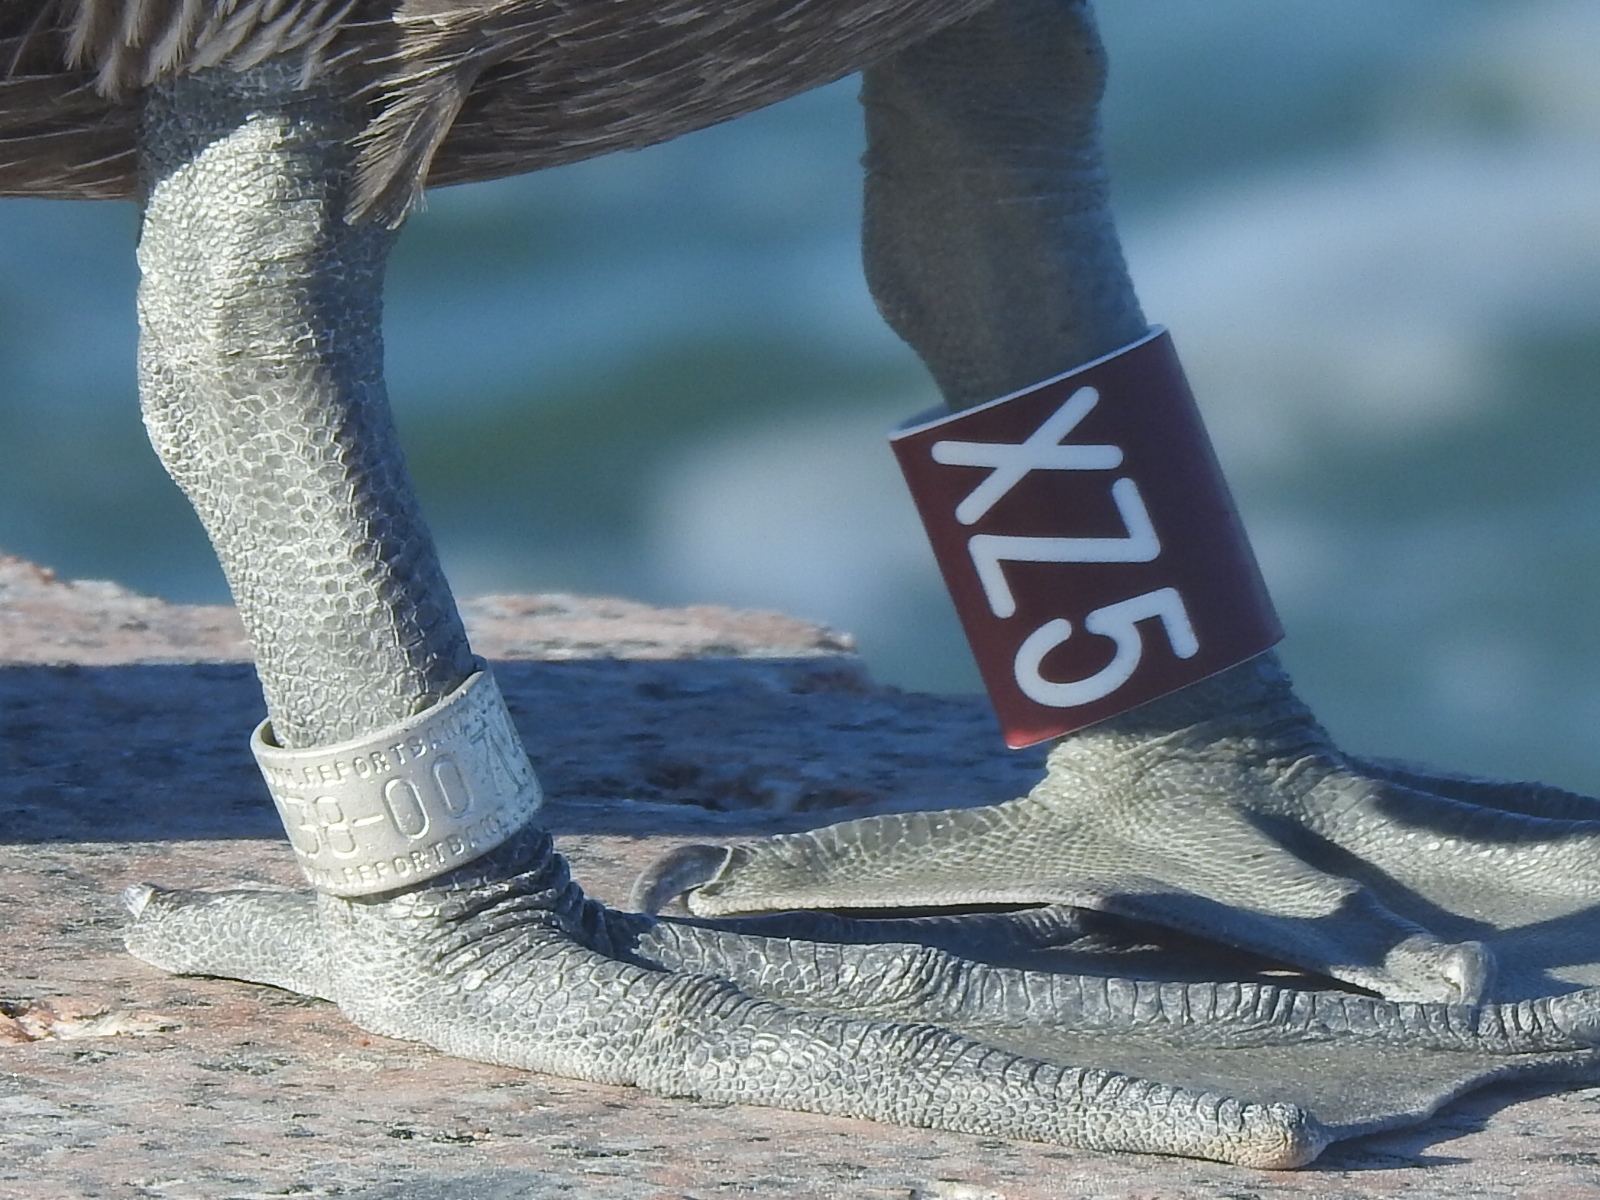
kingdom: Animalia
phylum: Chordata
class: Aves
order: Pelecaniformes
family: Pelecanidae
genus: Pelecanus
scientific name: Pelecanus occidentalis
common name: Brown pelican
